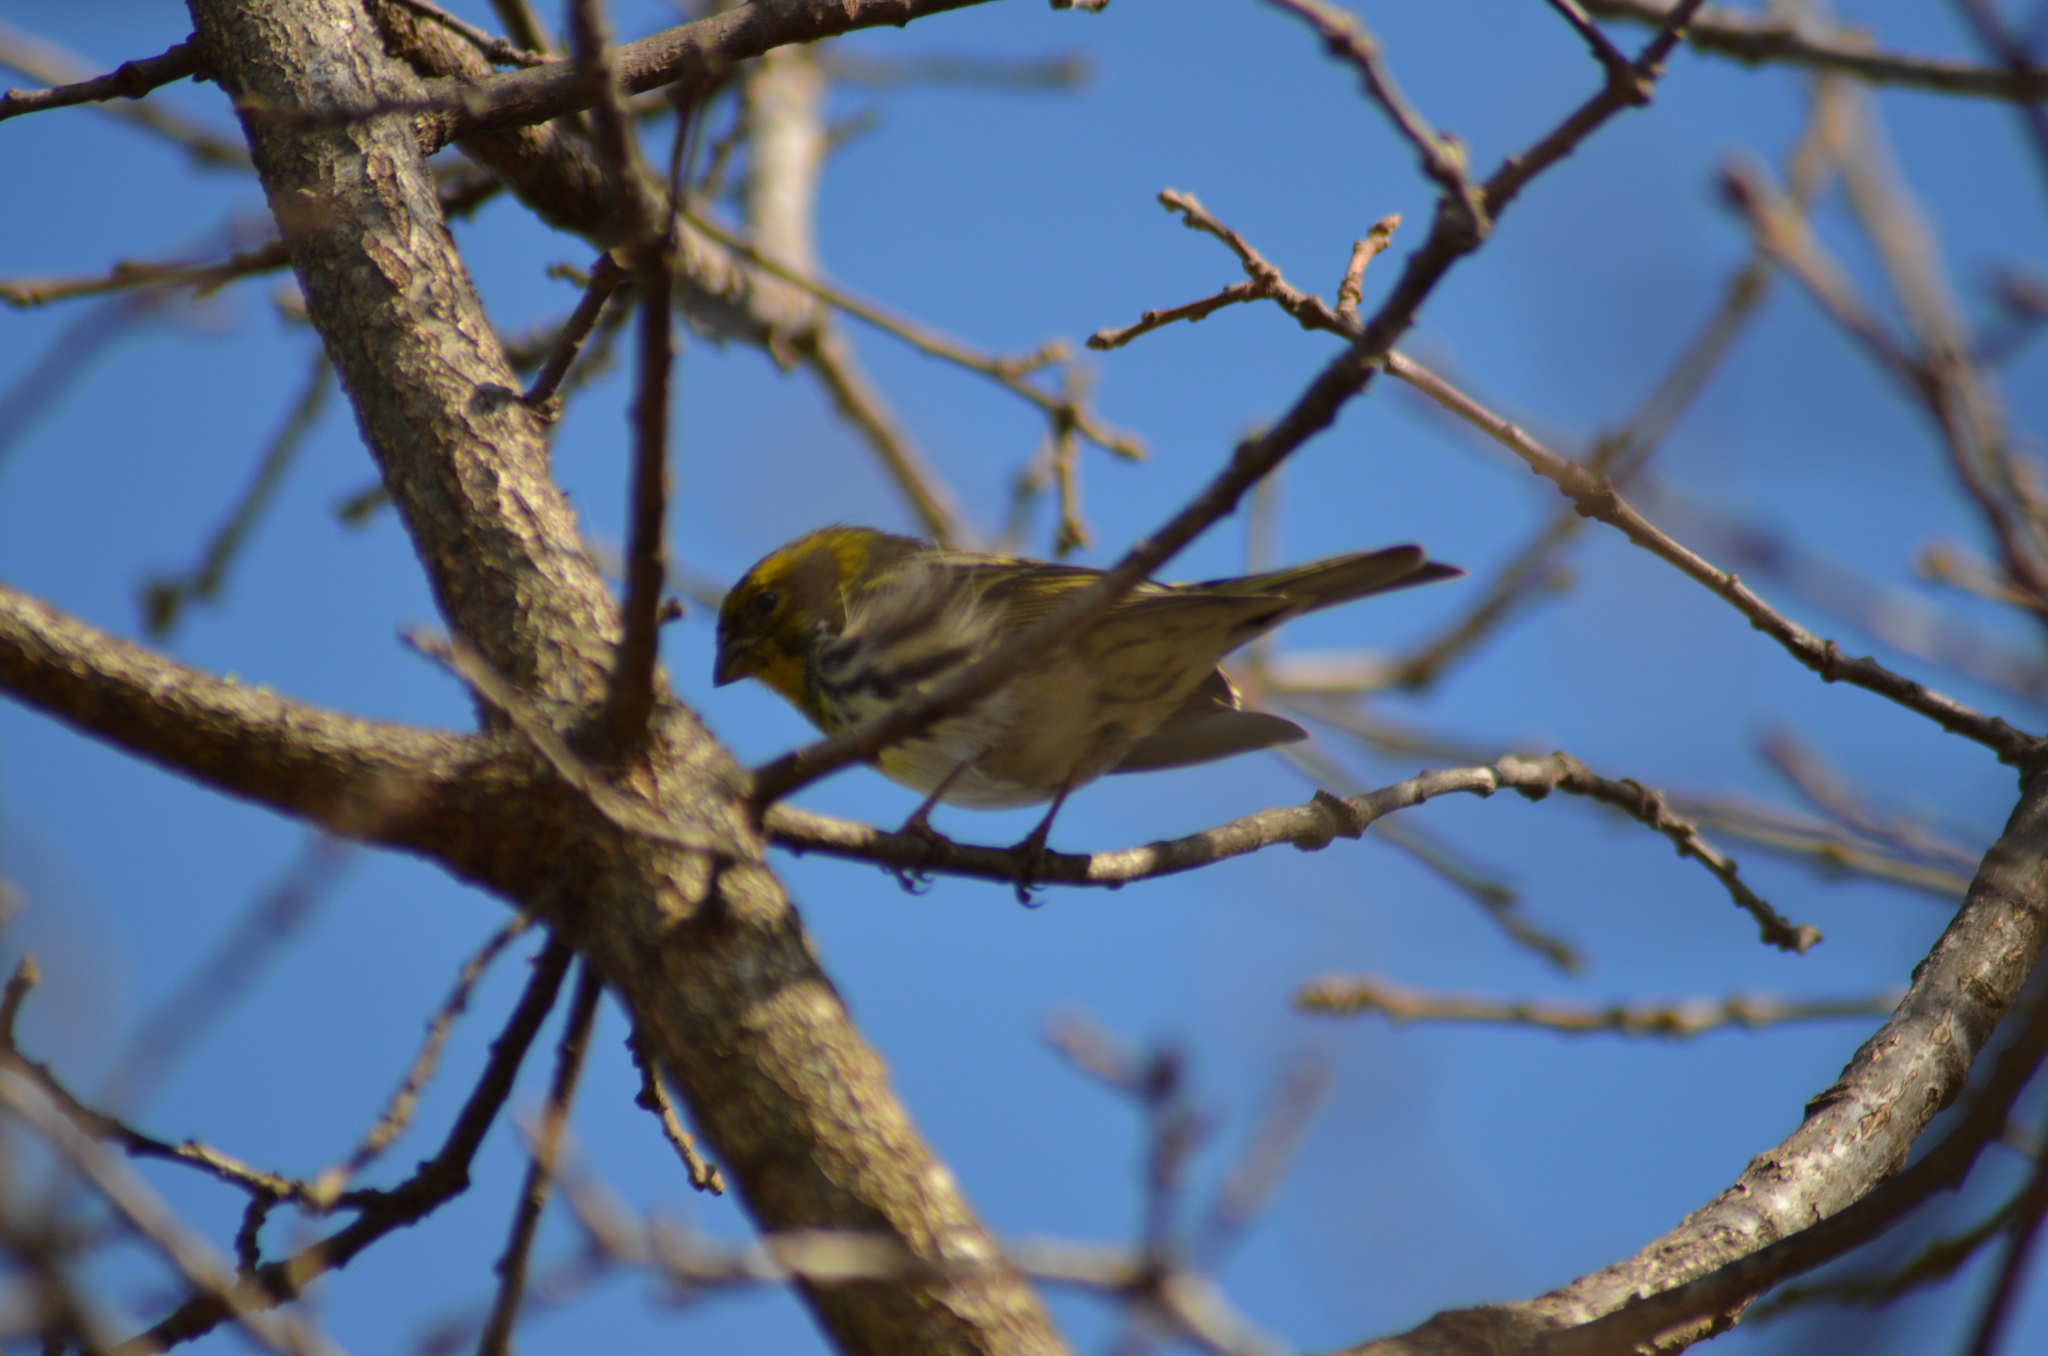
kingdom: Animalia
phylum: Chordata
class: Aves
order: Passeriformes
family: Fringillidae
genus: Serinus
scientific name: Serinus serinus
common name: European serin
